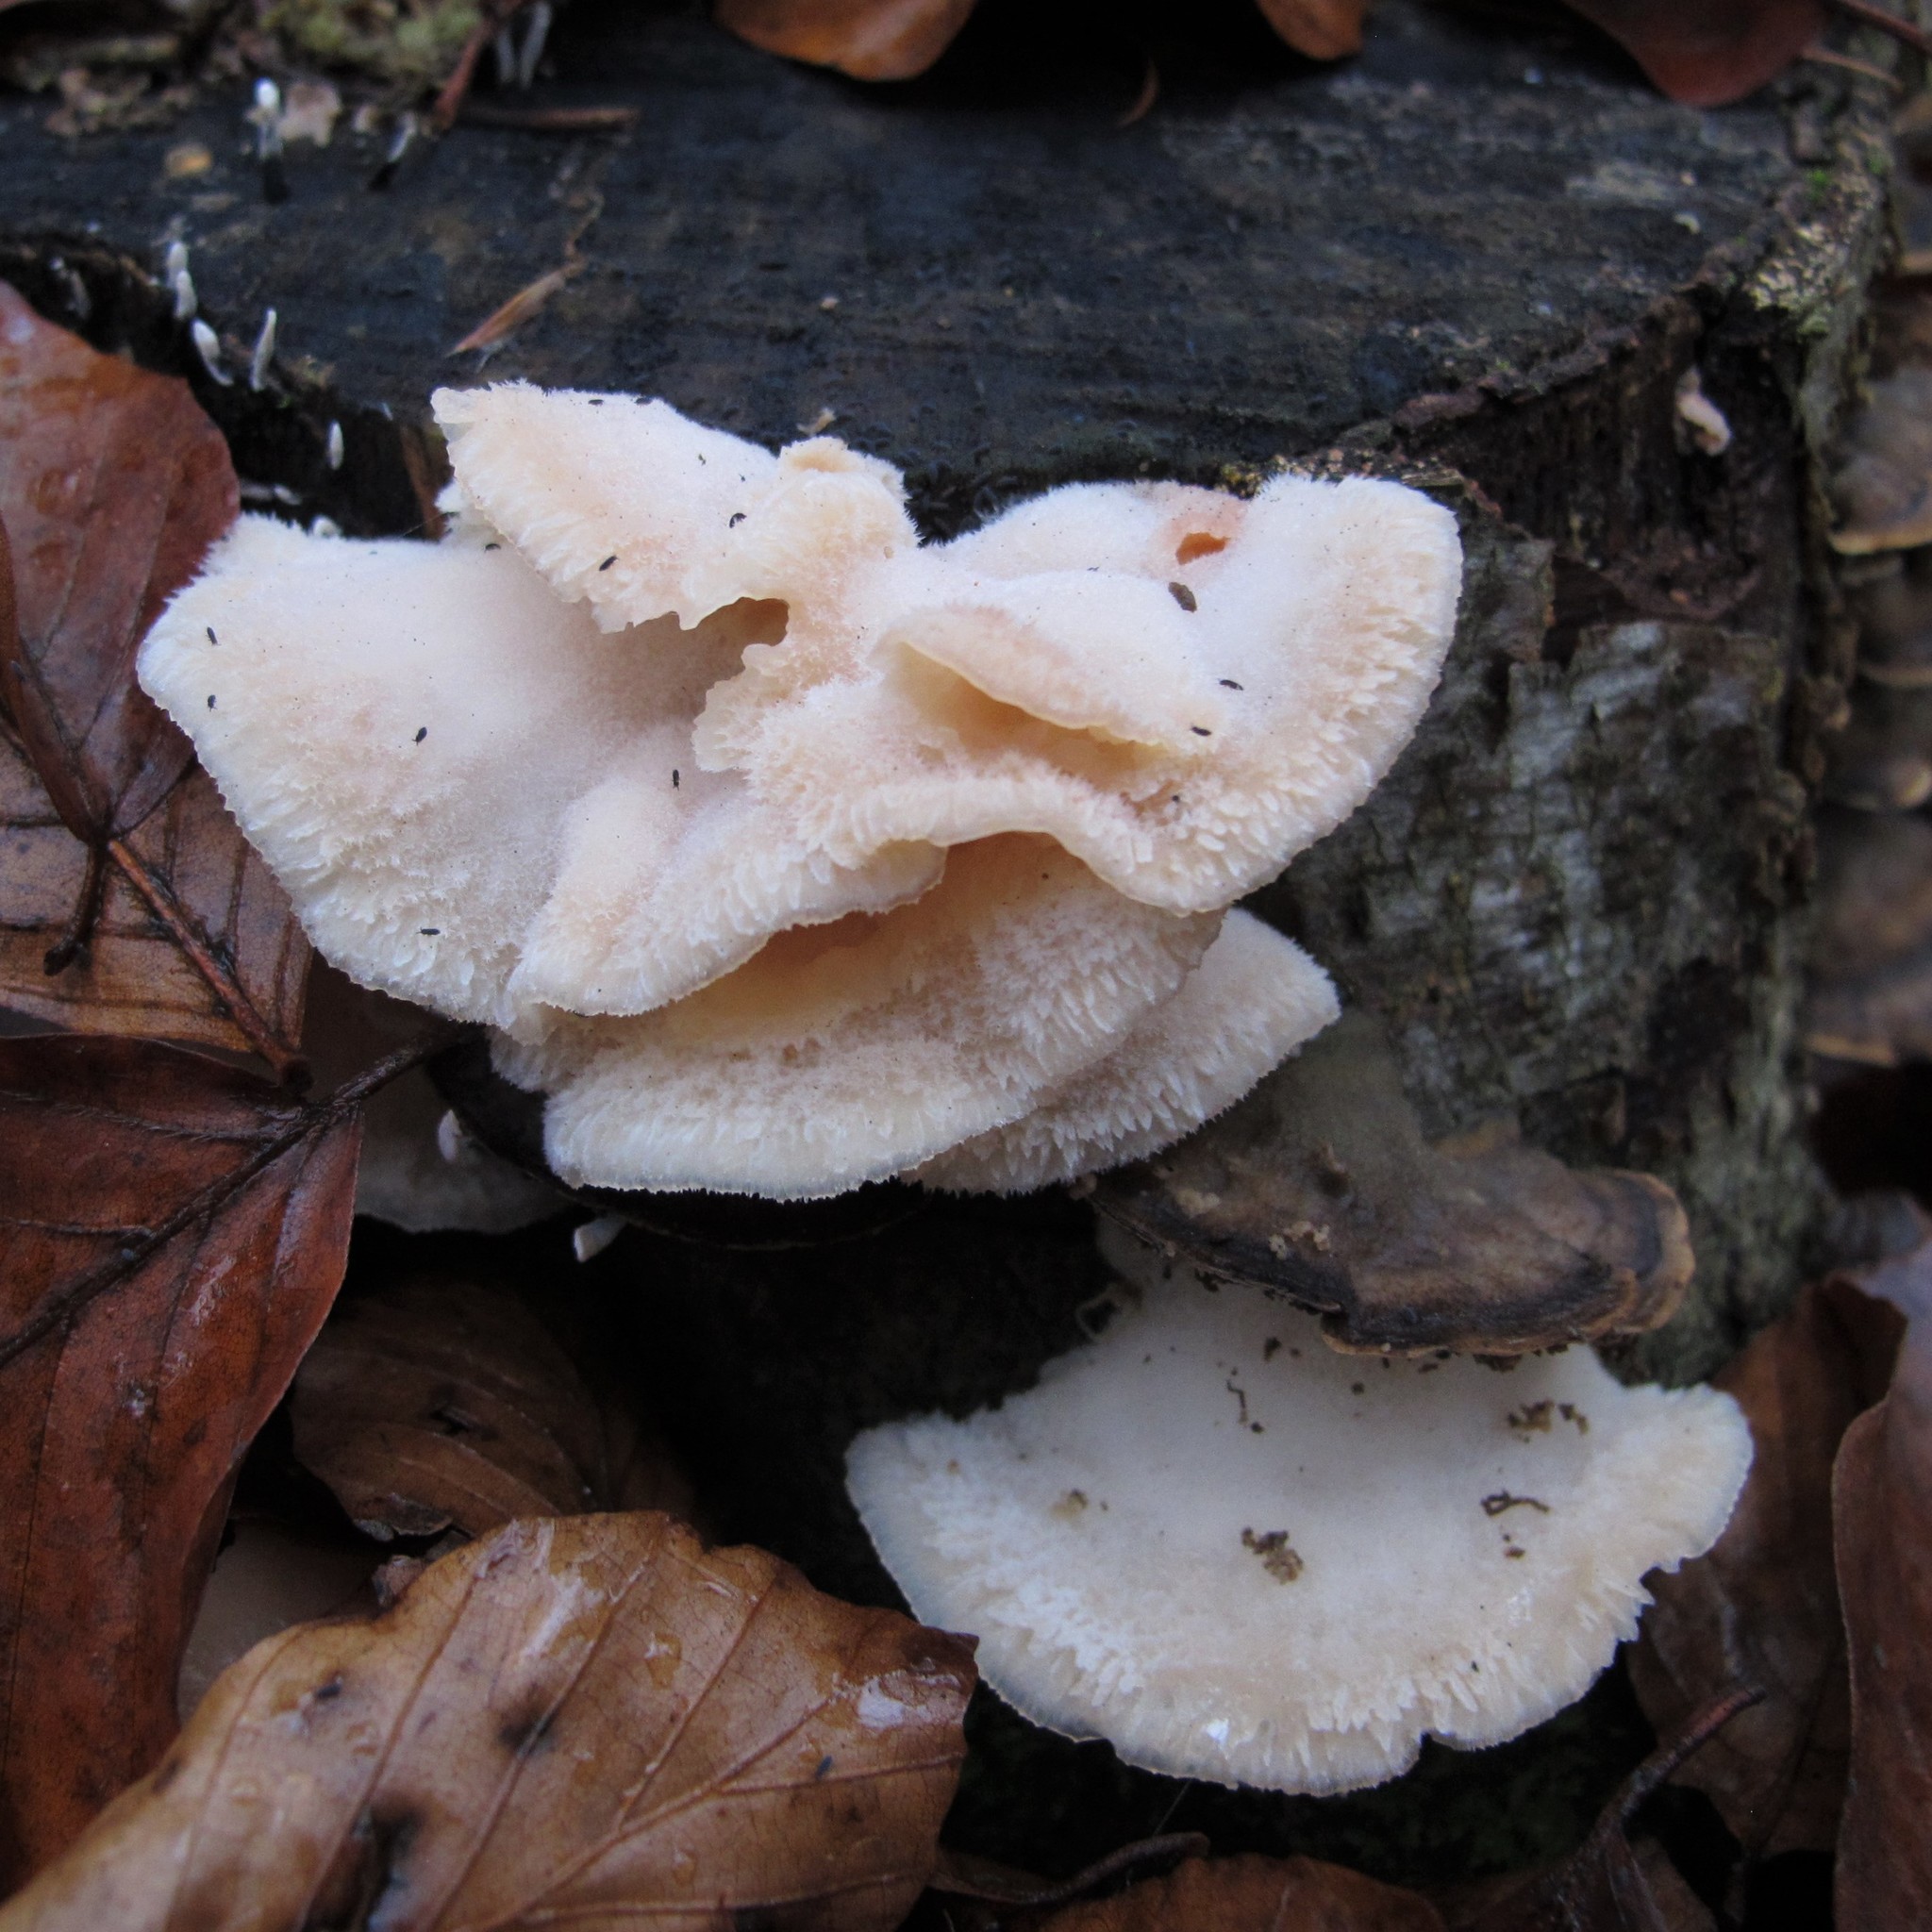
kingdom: Fungi
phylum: Basidiomycota
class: Agaricomycetes
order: Polyporales
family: Meruliaceae
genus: Phlebia
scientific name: Phlebia tremellosa
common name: Jelly rot
